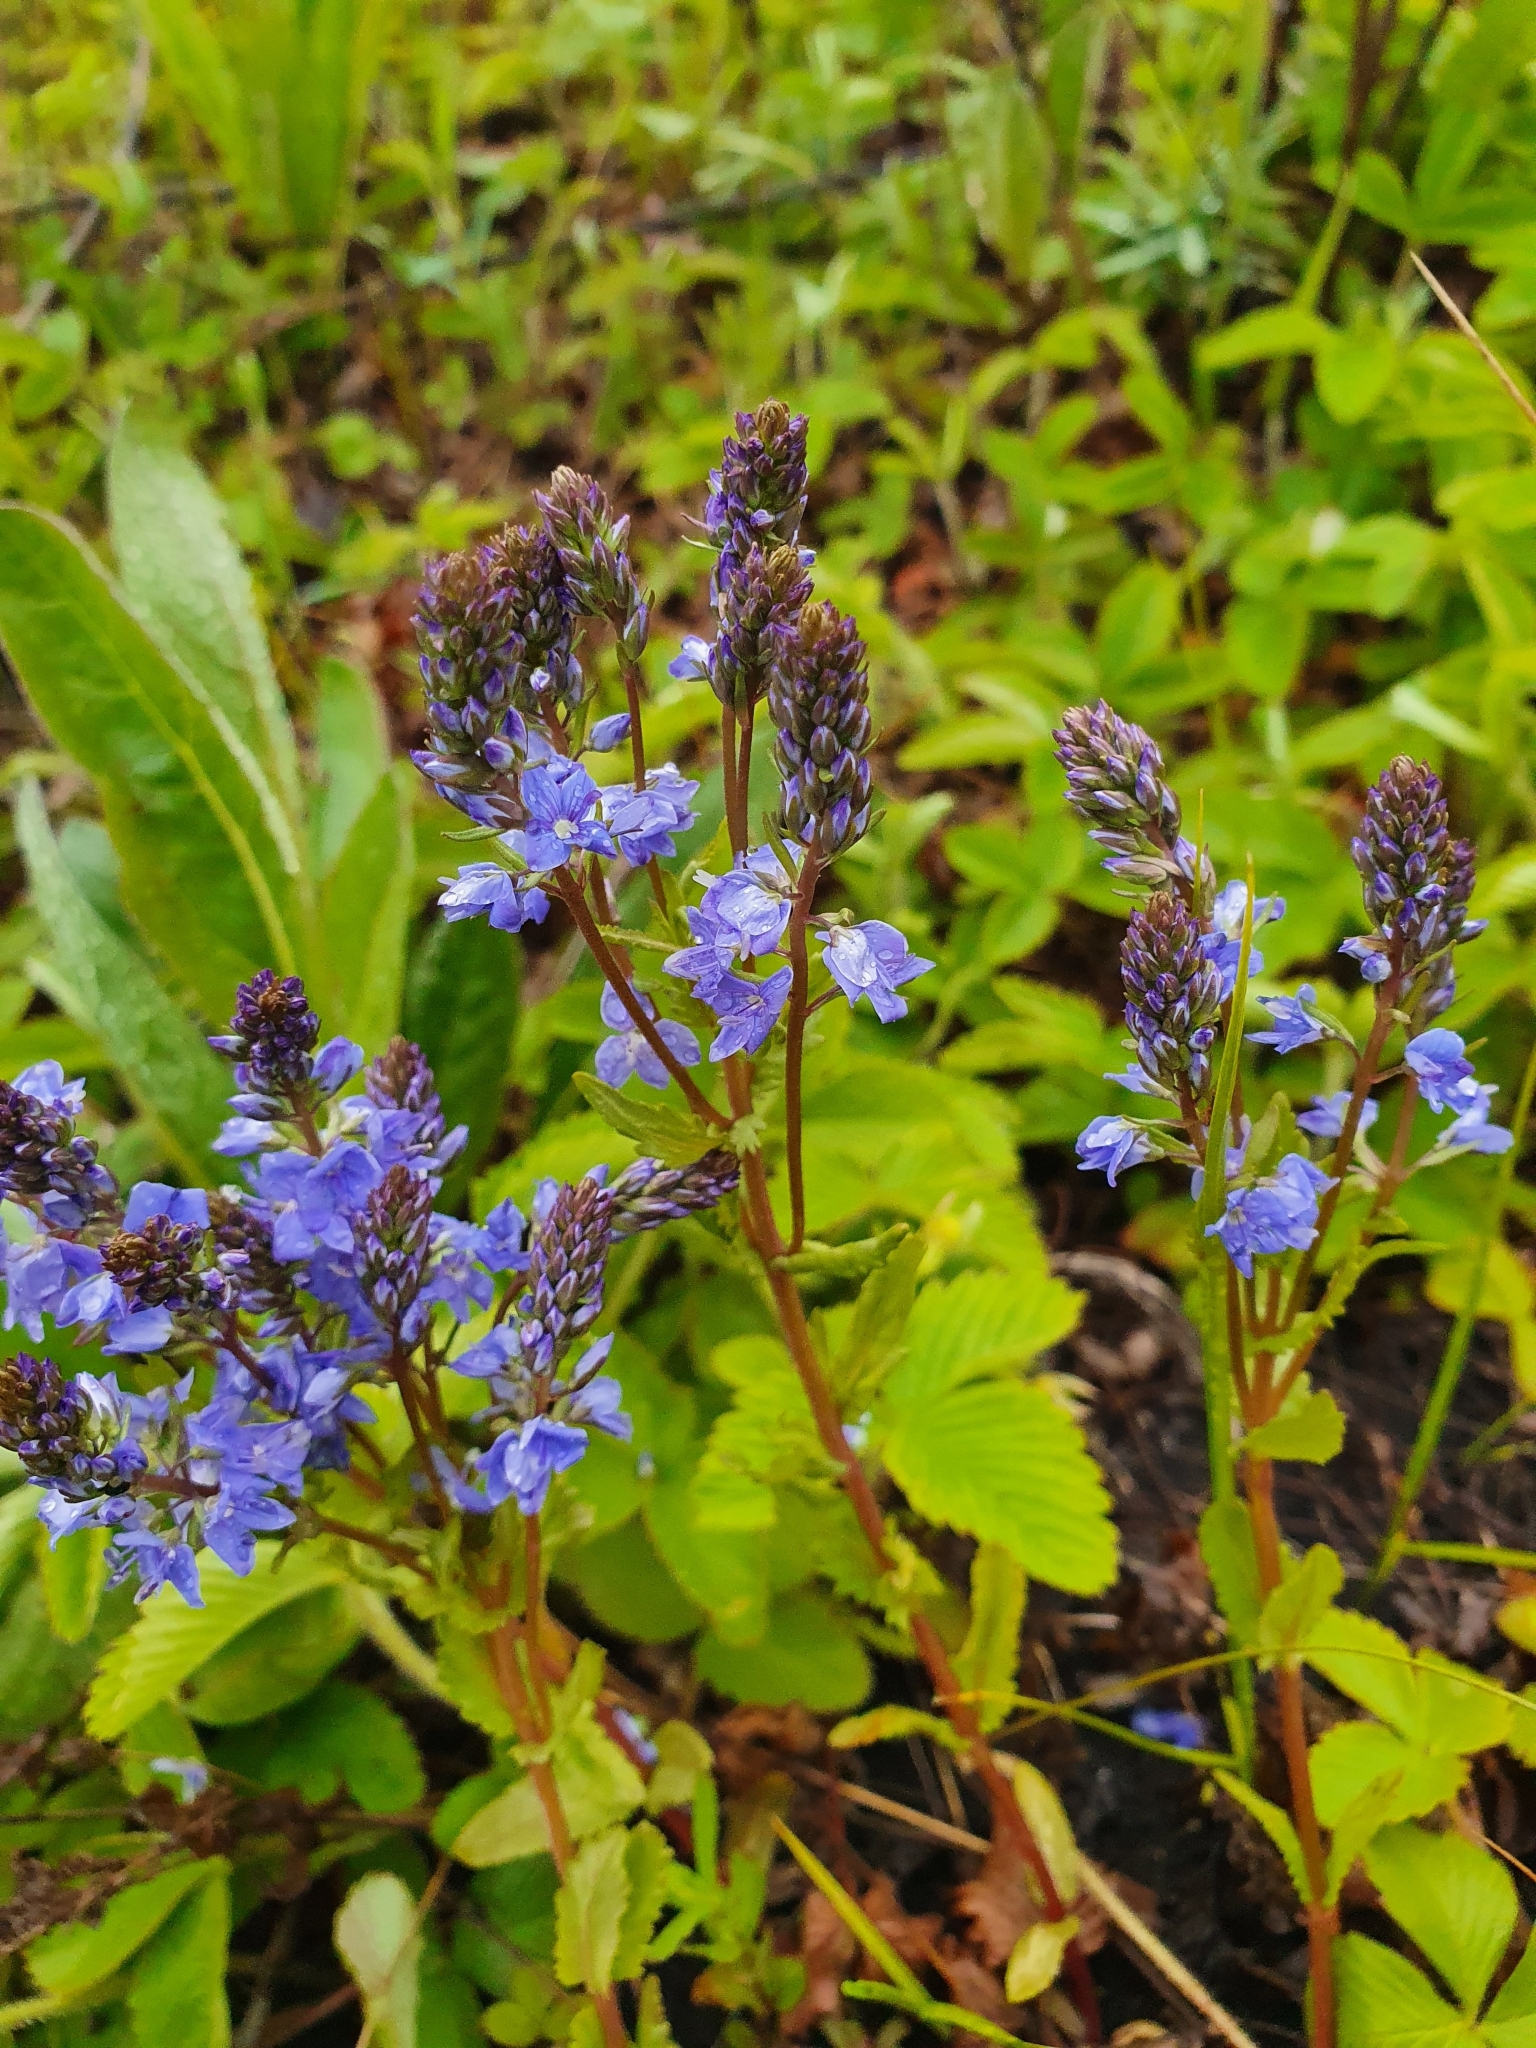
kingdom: Plantae
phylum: Tracheophyta
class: Magnoliopsida
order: Lamiales
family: Plantaginaceae
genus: Veronica
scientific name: Veronica prostrata
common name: Prostrate speedwell
